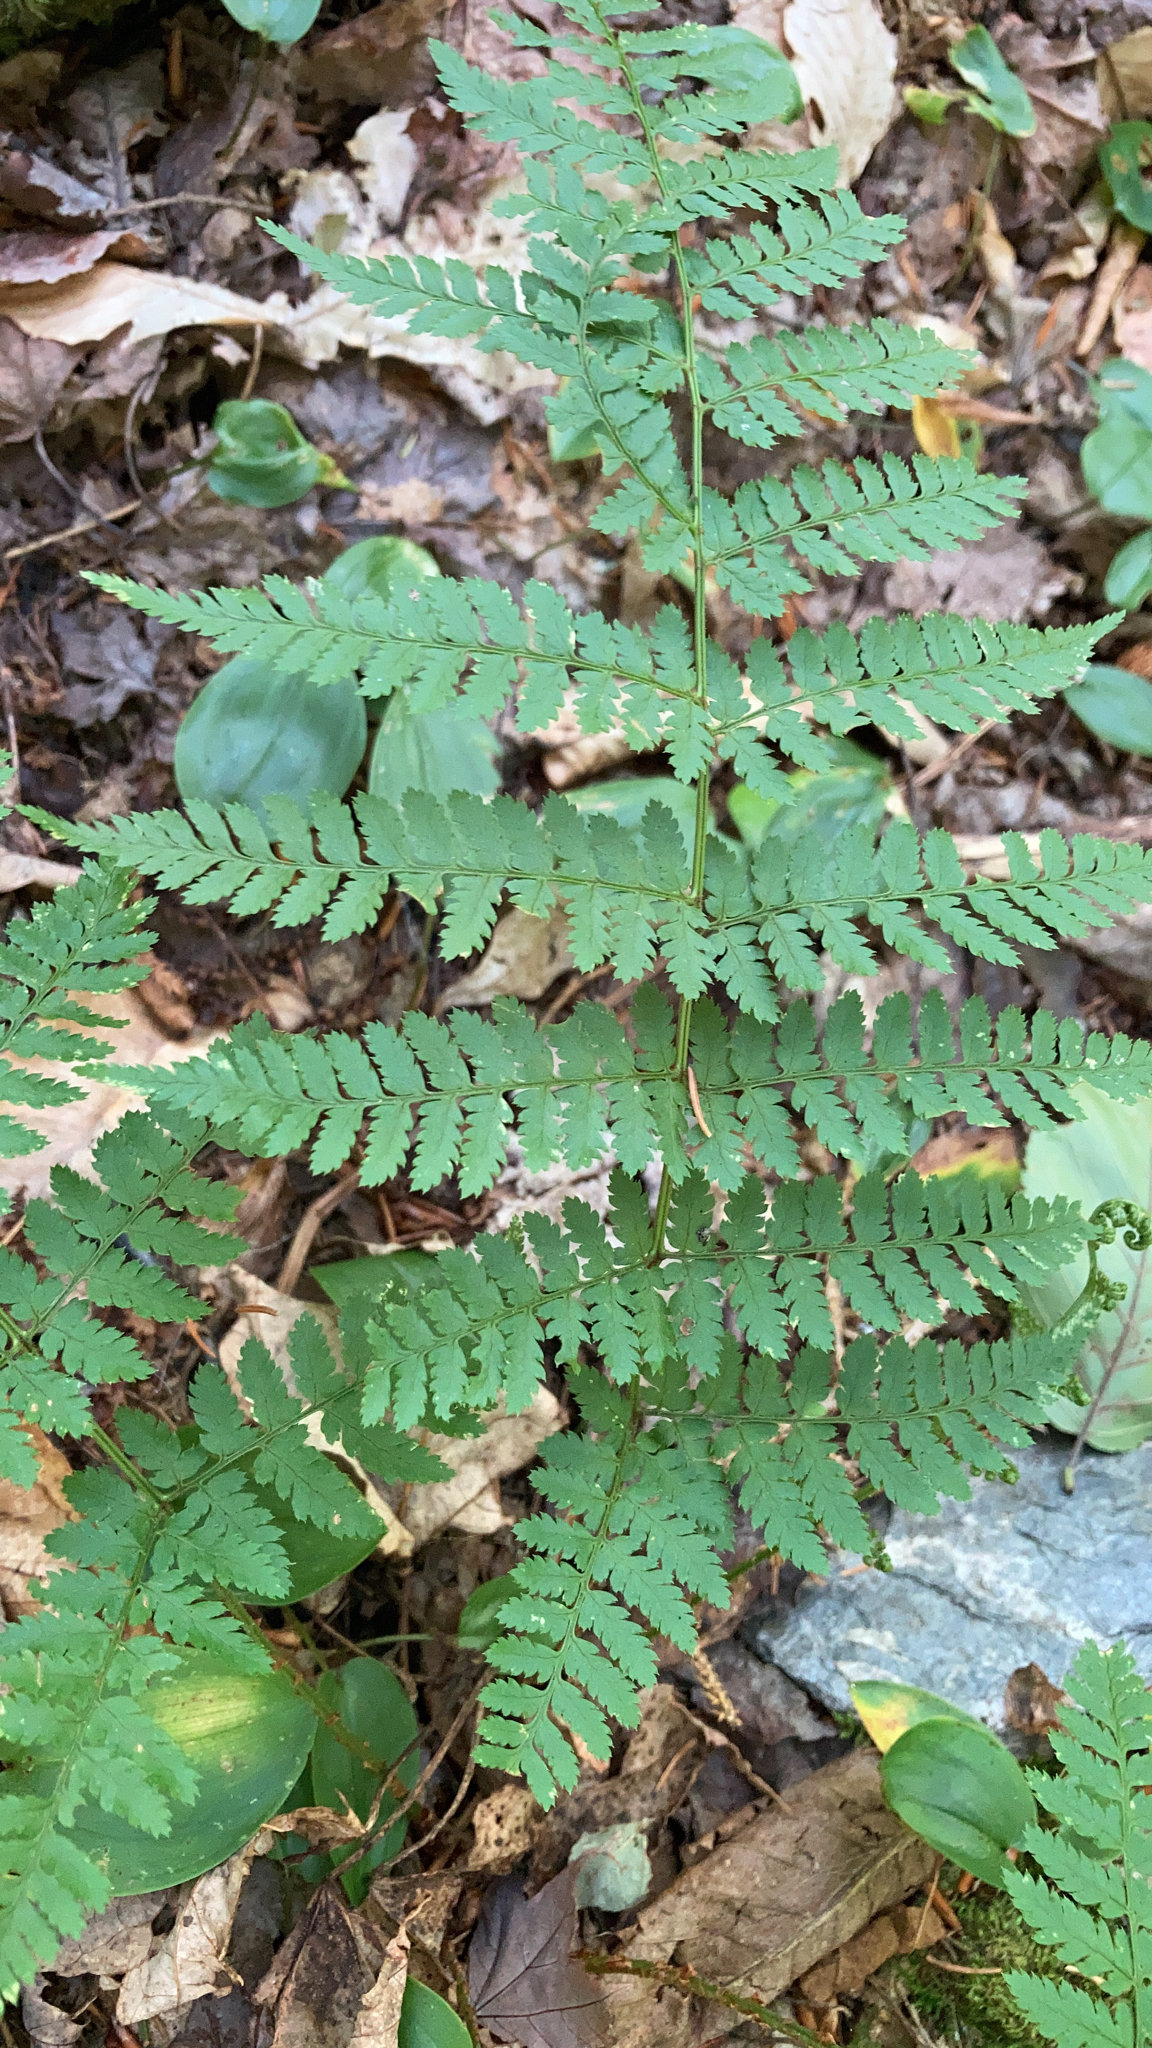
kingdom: Plantae
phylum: Tracheophyta
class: Polypodiopsida
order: Polypodiales
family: Dryopteridaceae
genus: Dryopteris
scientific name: Dryopteris intermedia
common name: Evergreen wood fern
